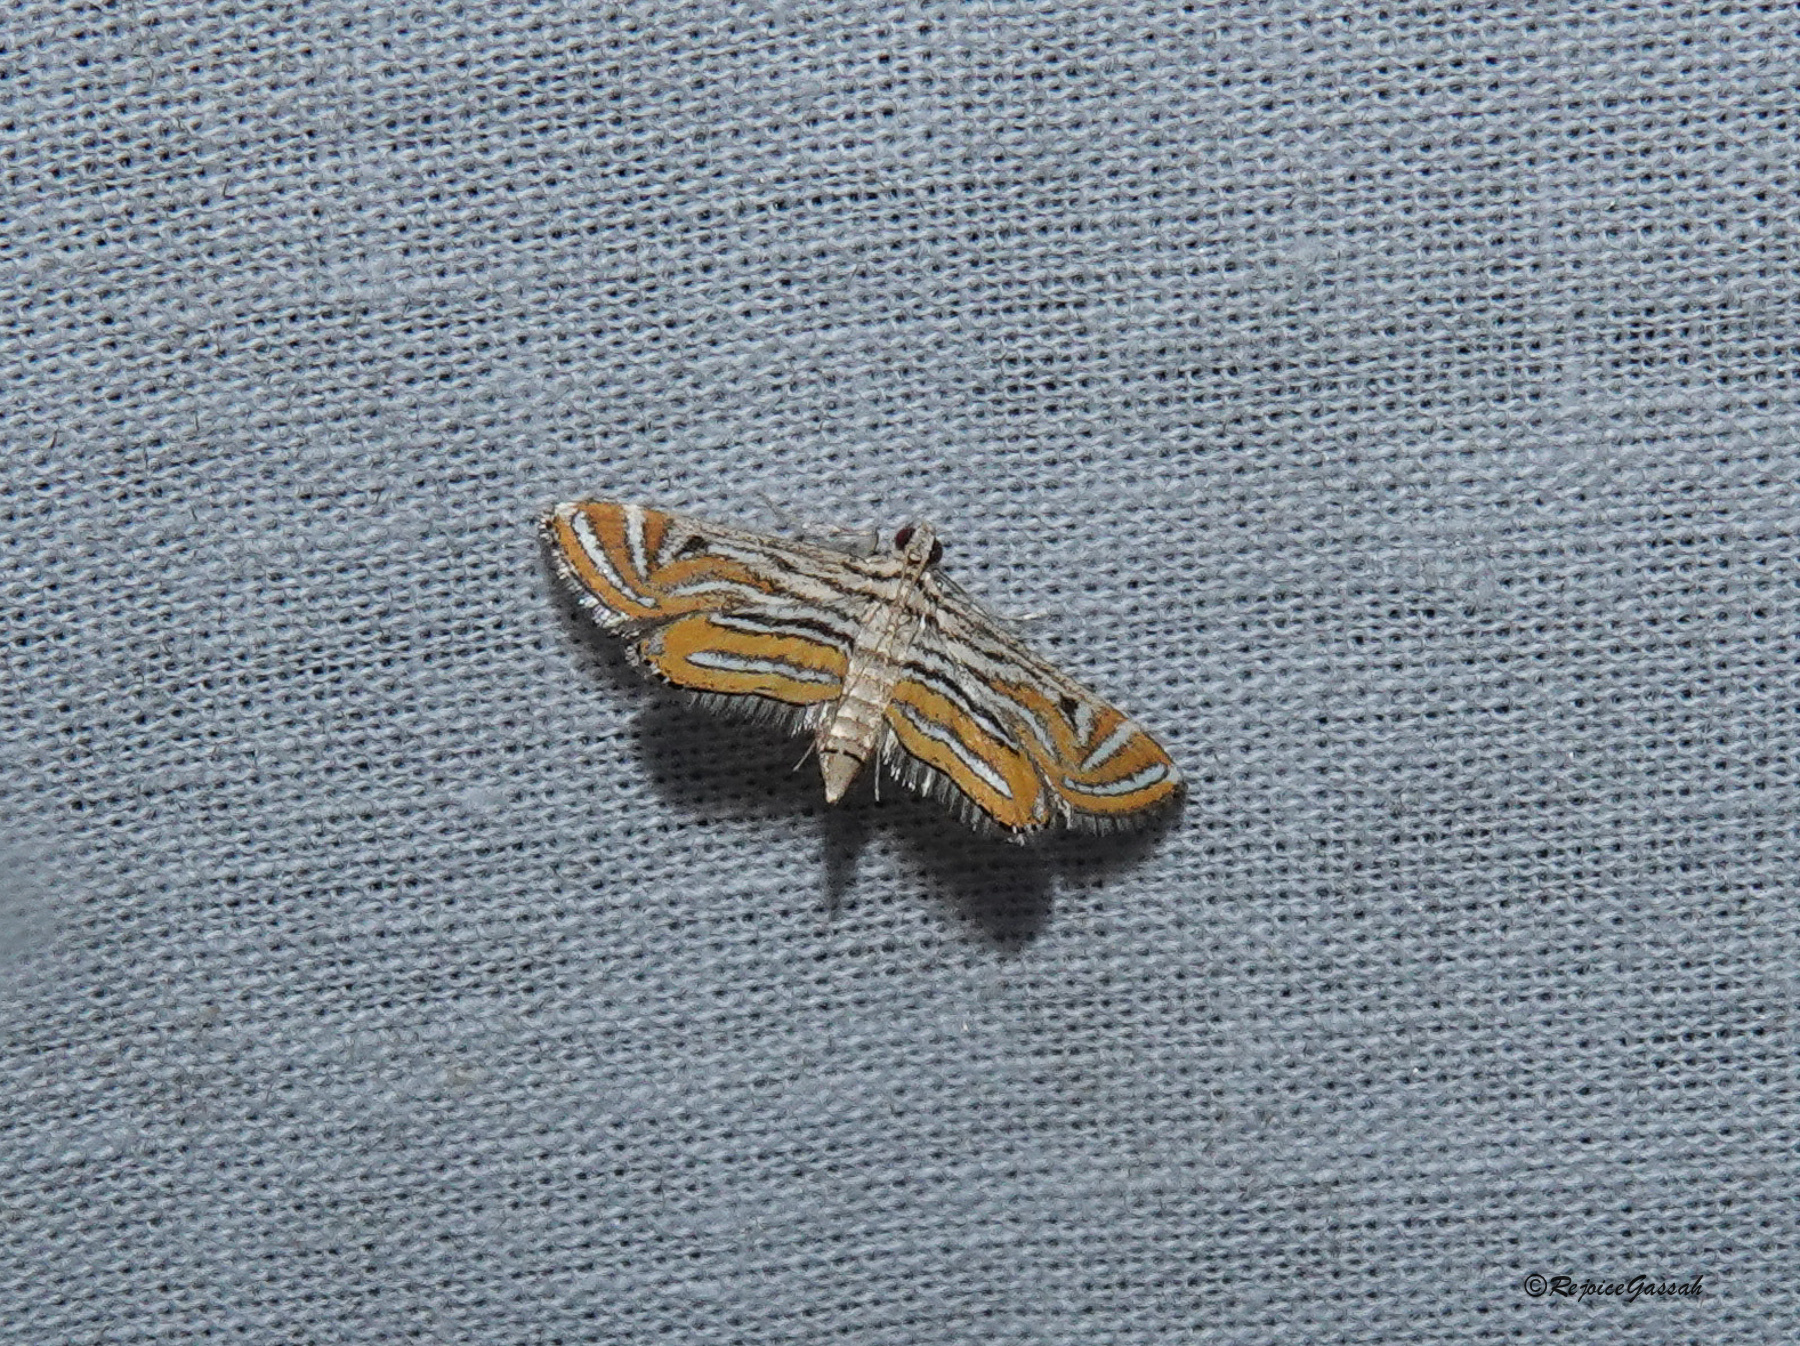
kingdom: Animalia
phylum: Arthropoda
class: Insecta
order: Lepidoptera
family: Crambidae
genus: Parapoynx
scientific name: Parapoynx bilinealis
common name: Streaked china-mark
